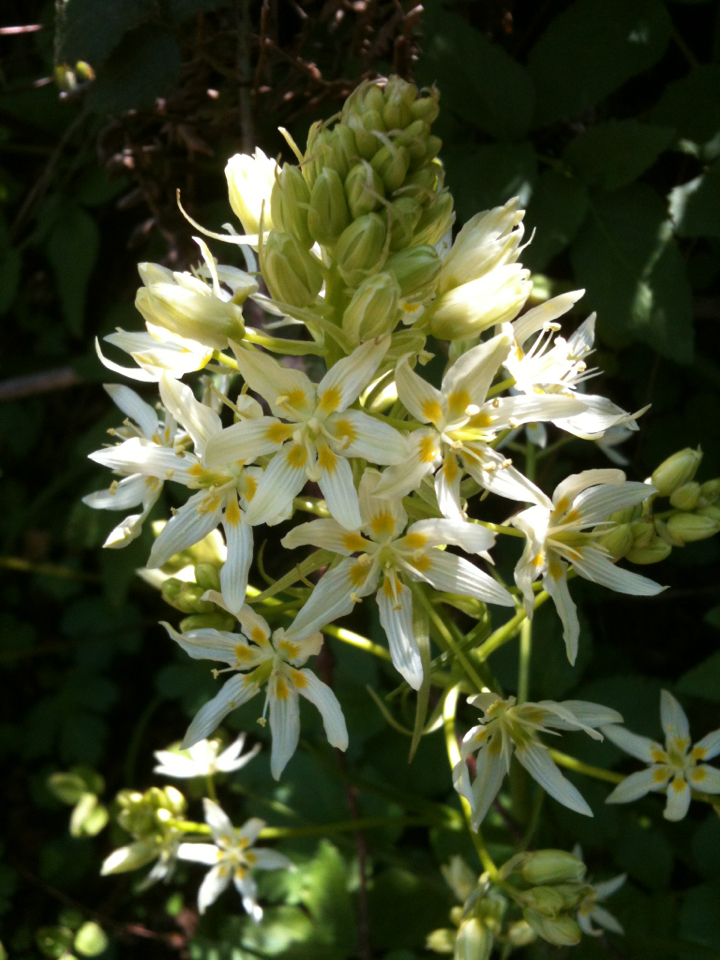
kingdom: Plantae
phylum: Tracheophyta
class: Liliopsida
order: Liliales
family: Melanthiaceae
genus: Toxicoscordion
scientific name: Toxicoscordion fremontii
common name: Fremont's death camas
